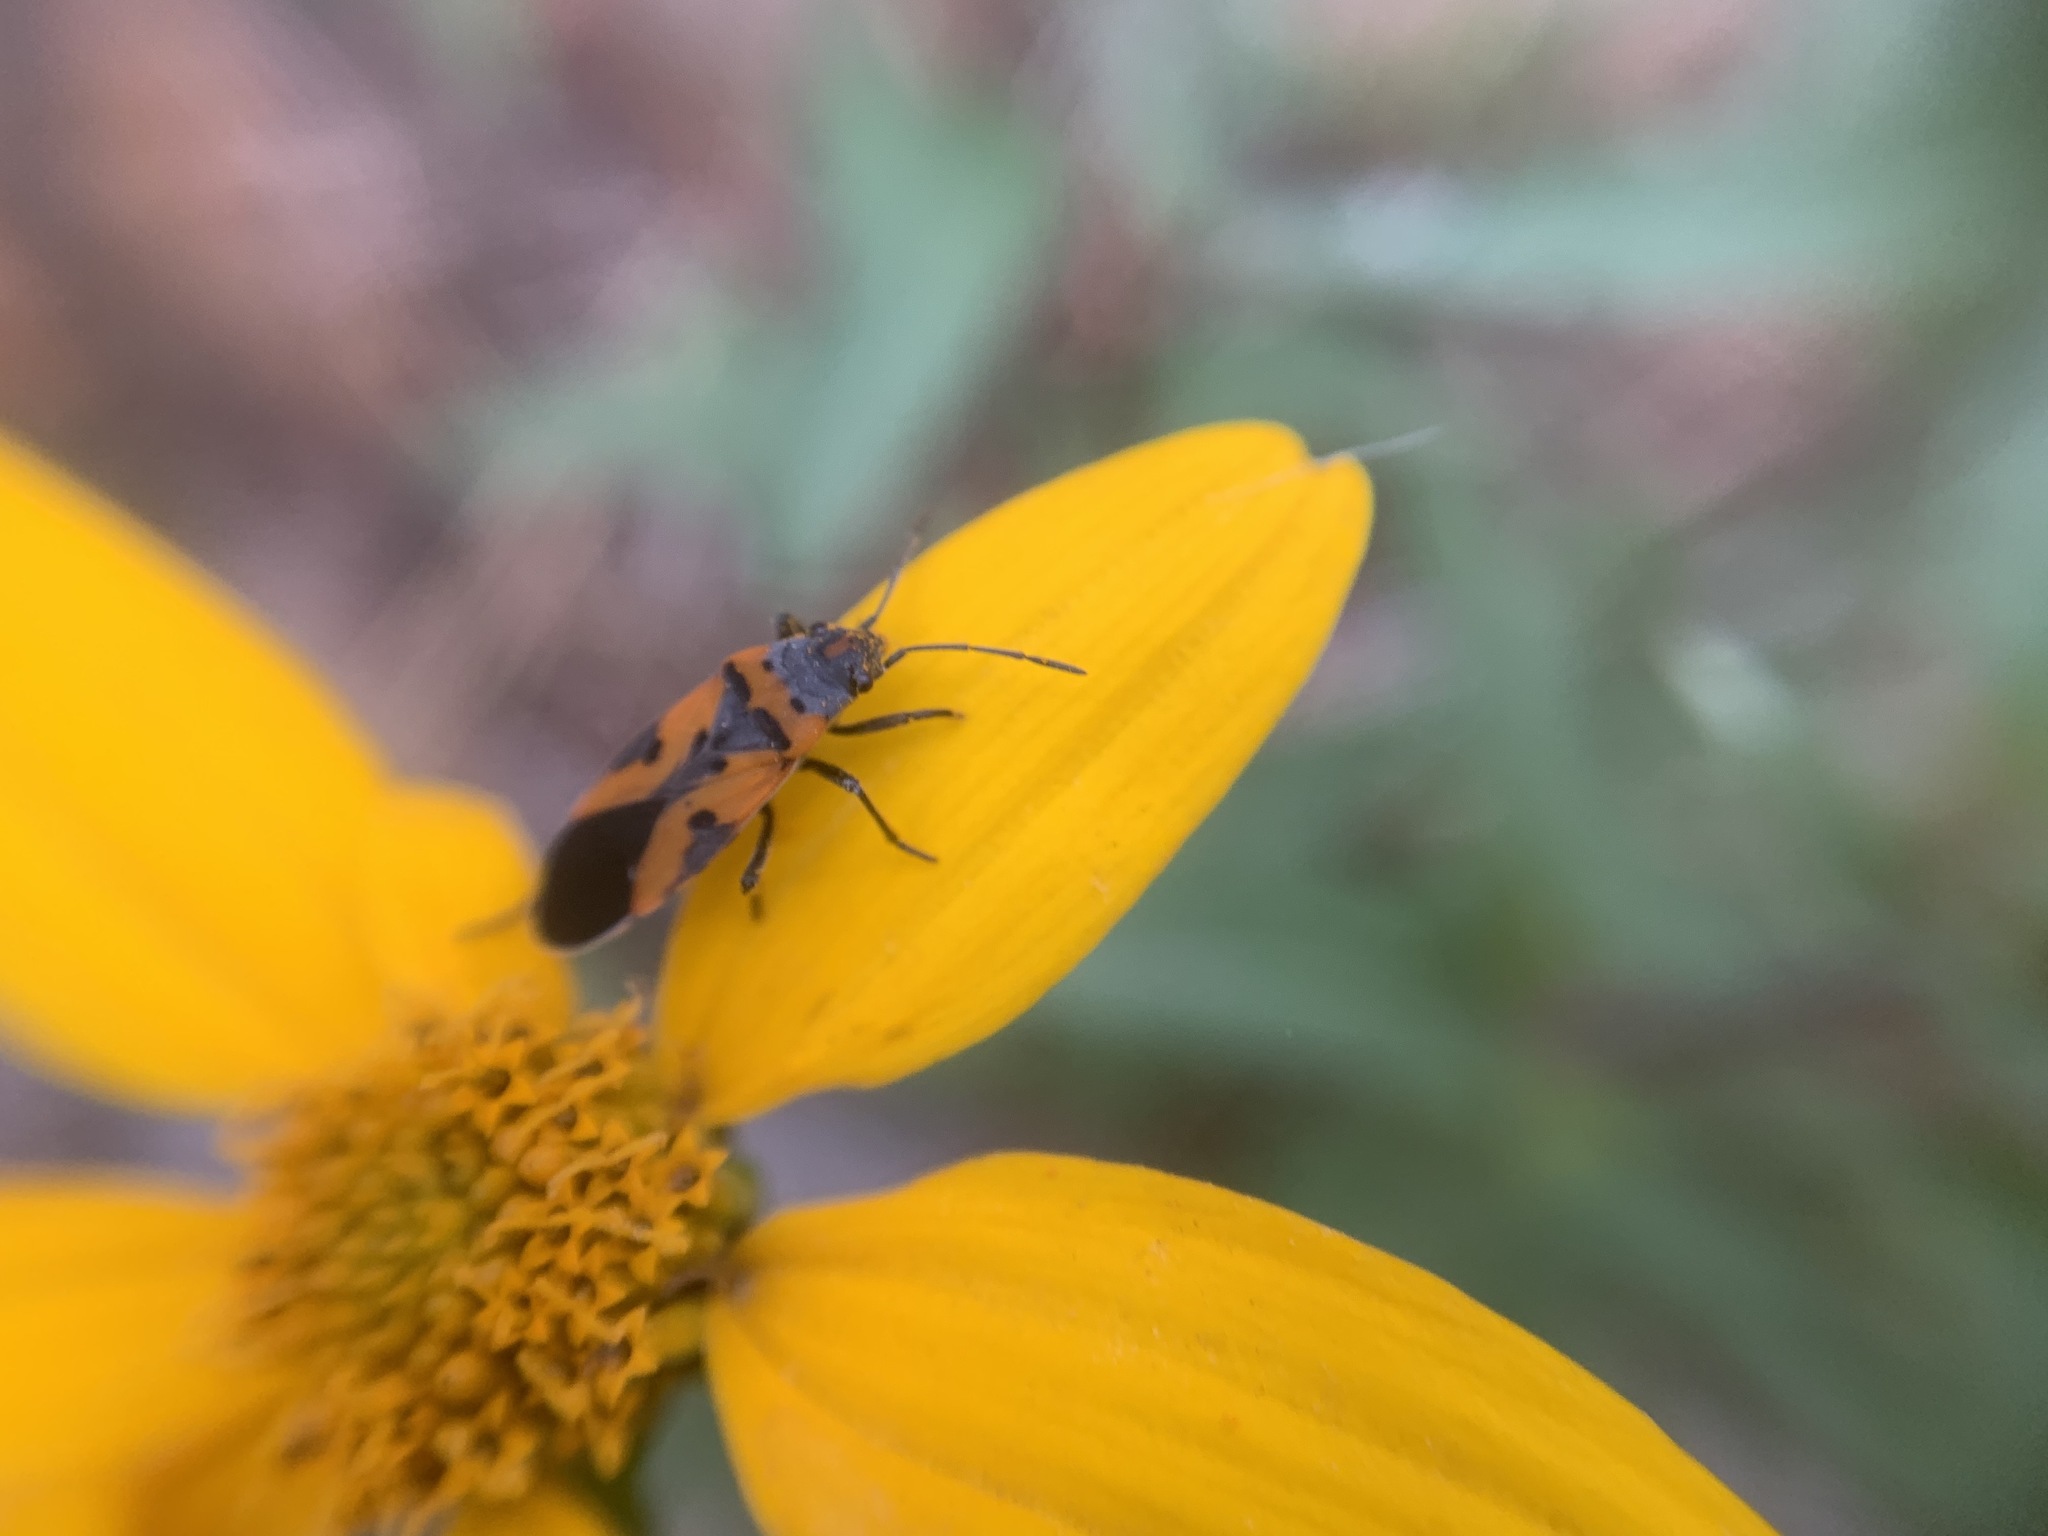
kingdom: Animalia
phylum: Arthropoda
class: Insecta
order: Hemiptera
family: Lygaeidae
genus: Lygaeus
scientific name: Lygaeus reclivatus
